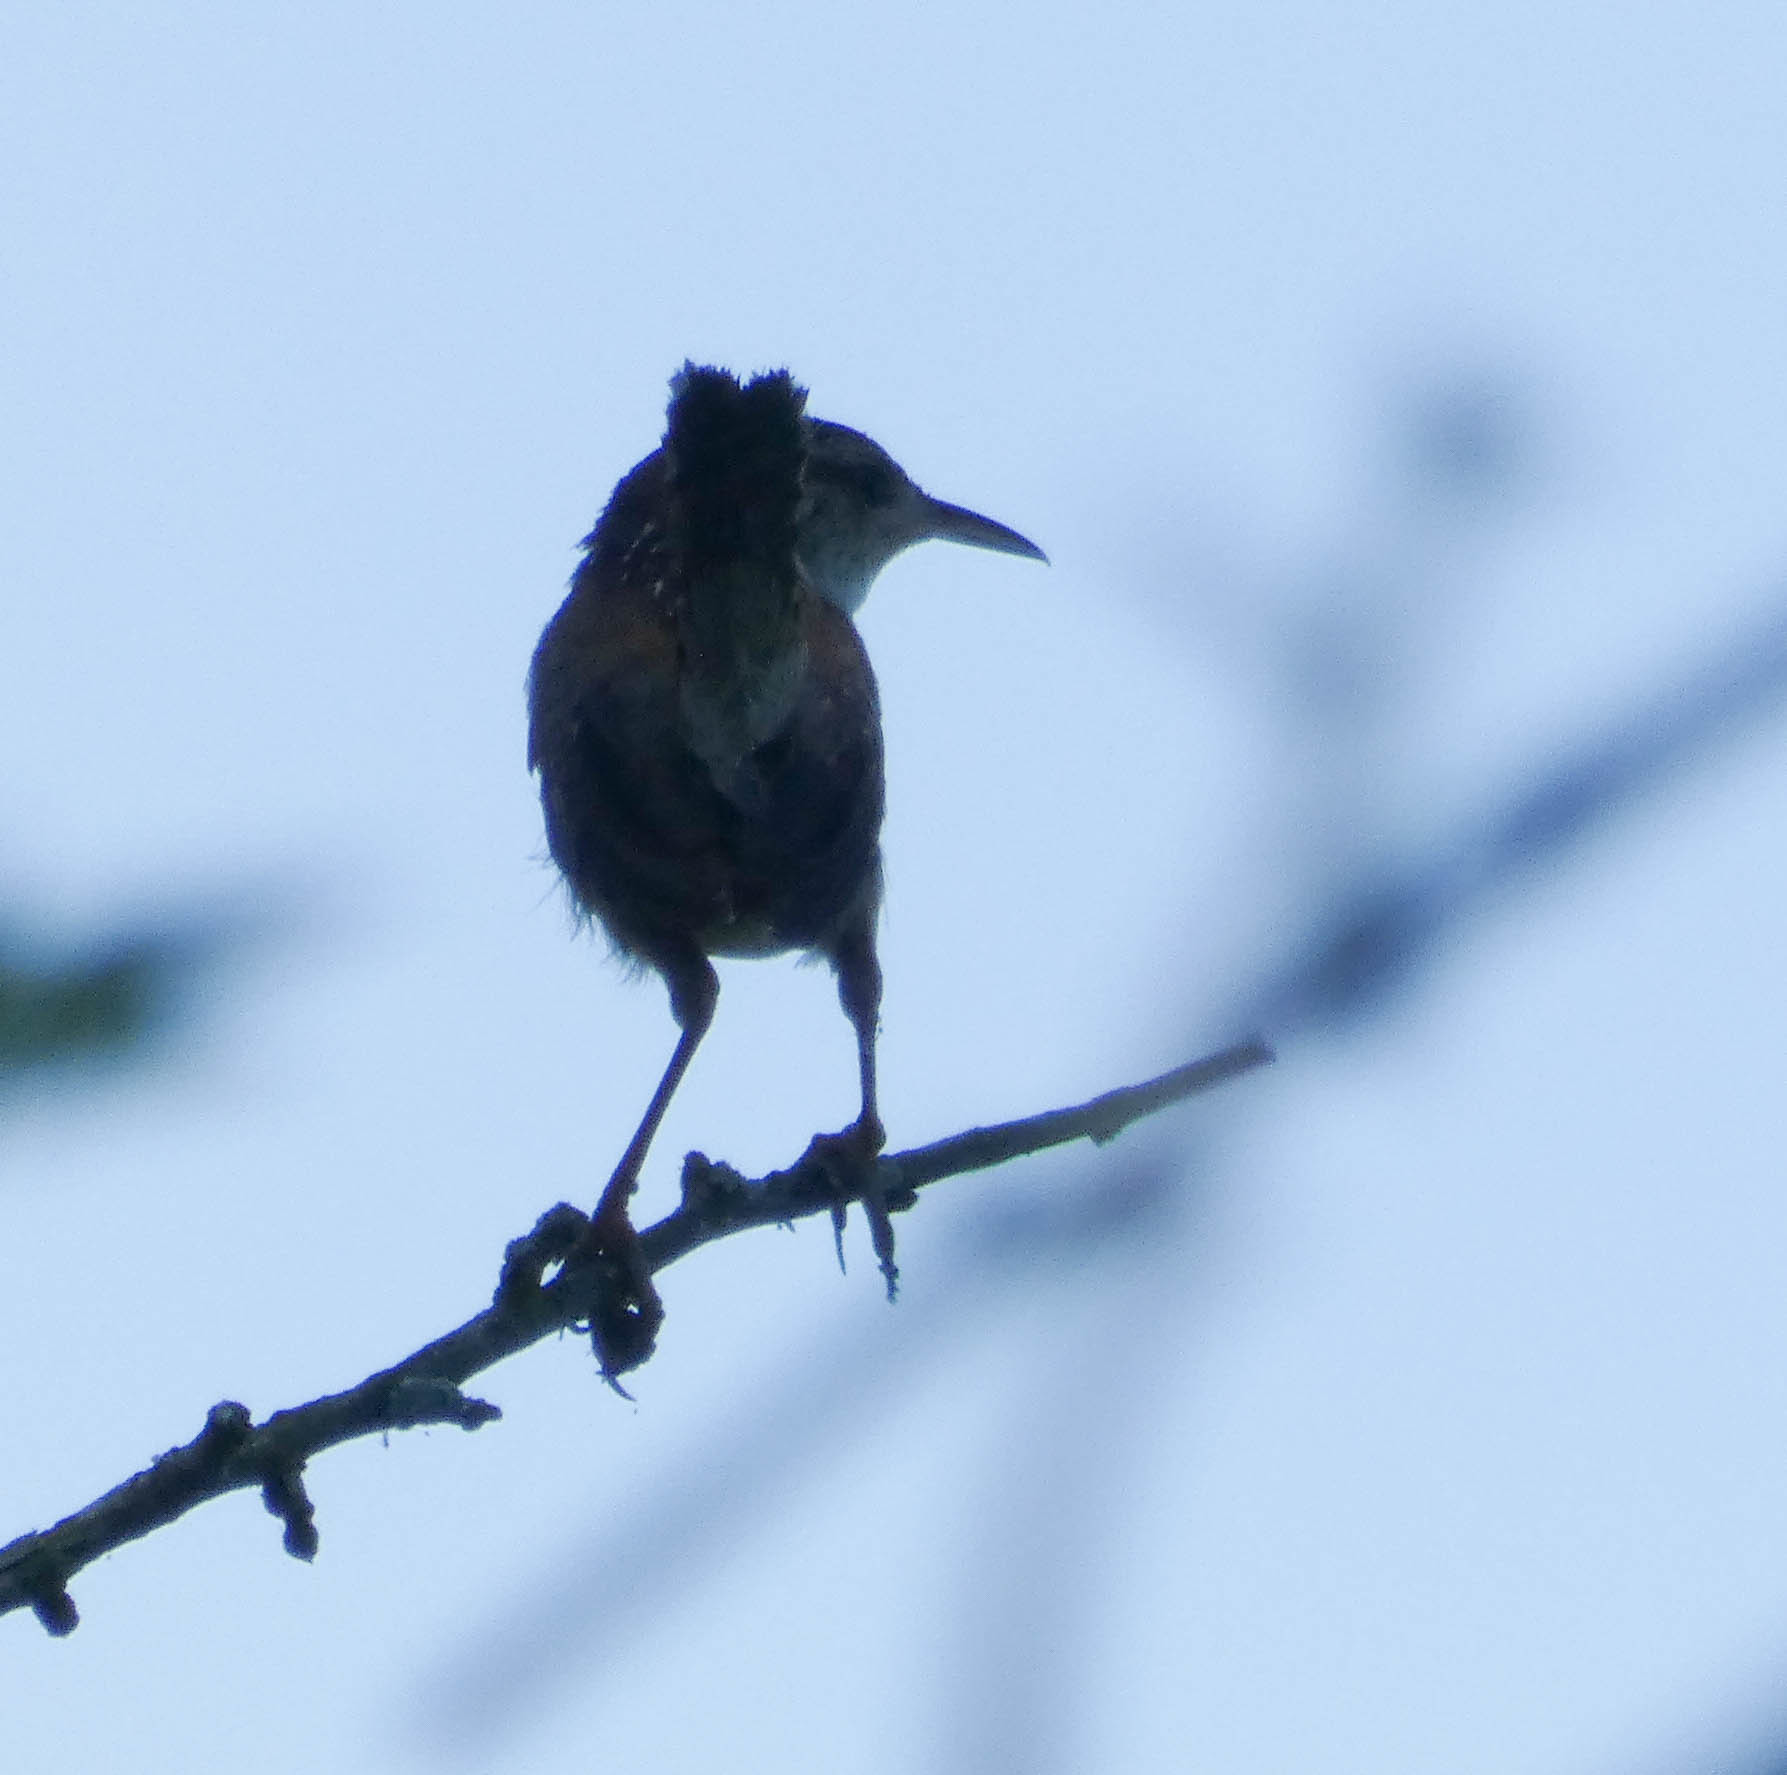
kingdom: Animalia
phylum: Chordata
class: Aves
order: Passeriformes
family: Troglodytidae
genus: Cistothorus
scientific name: Cistothorus palustris
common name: Marsh wren
